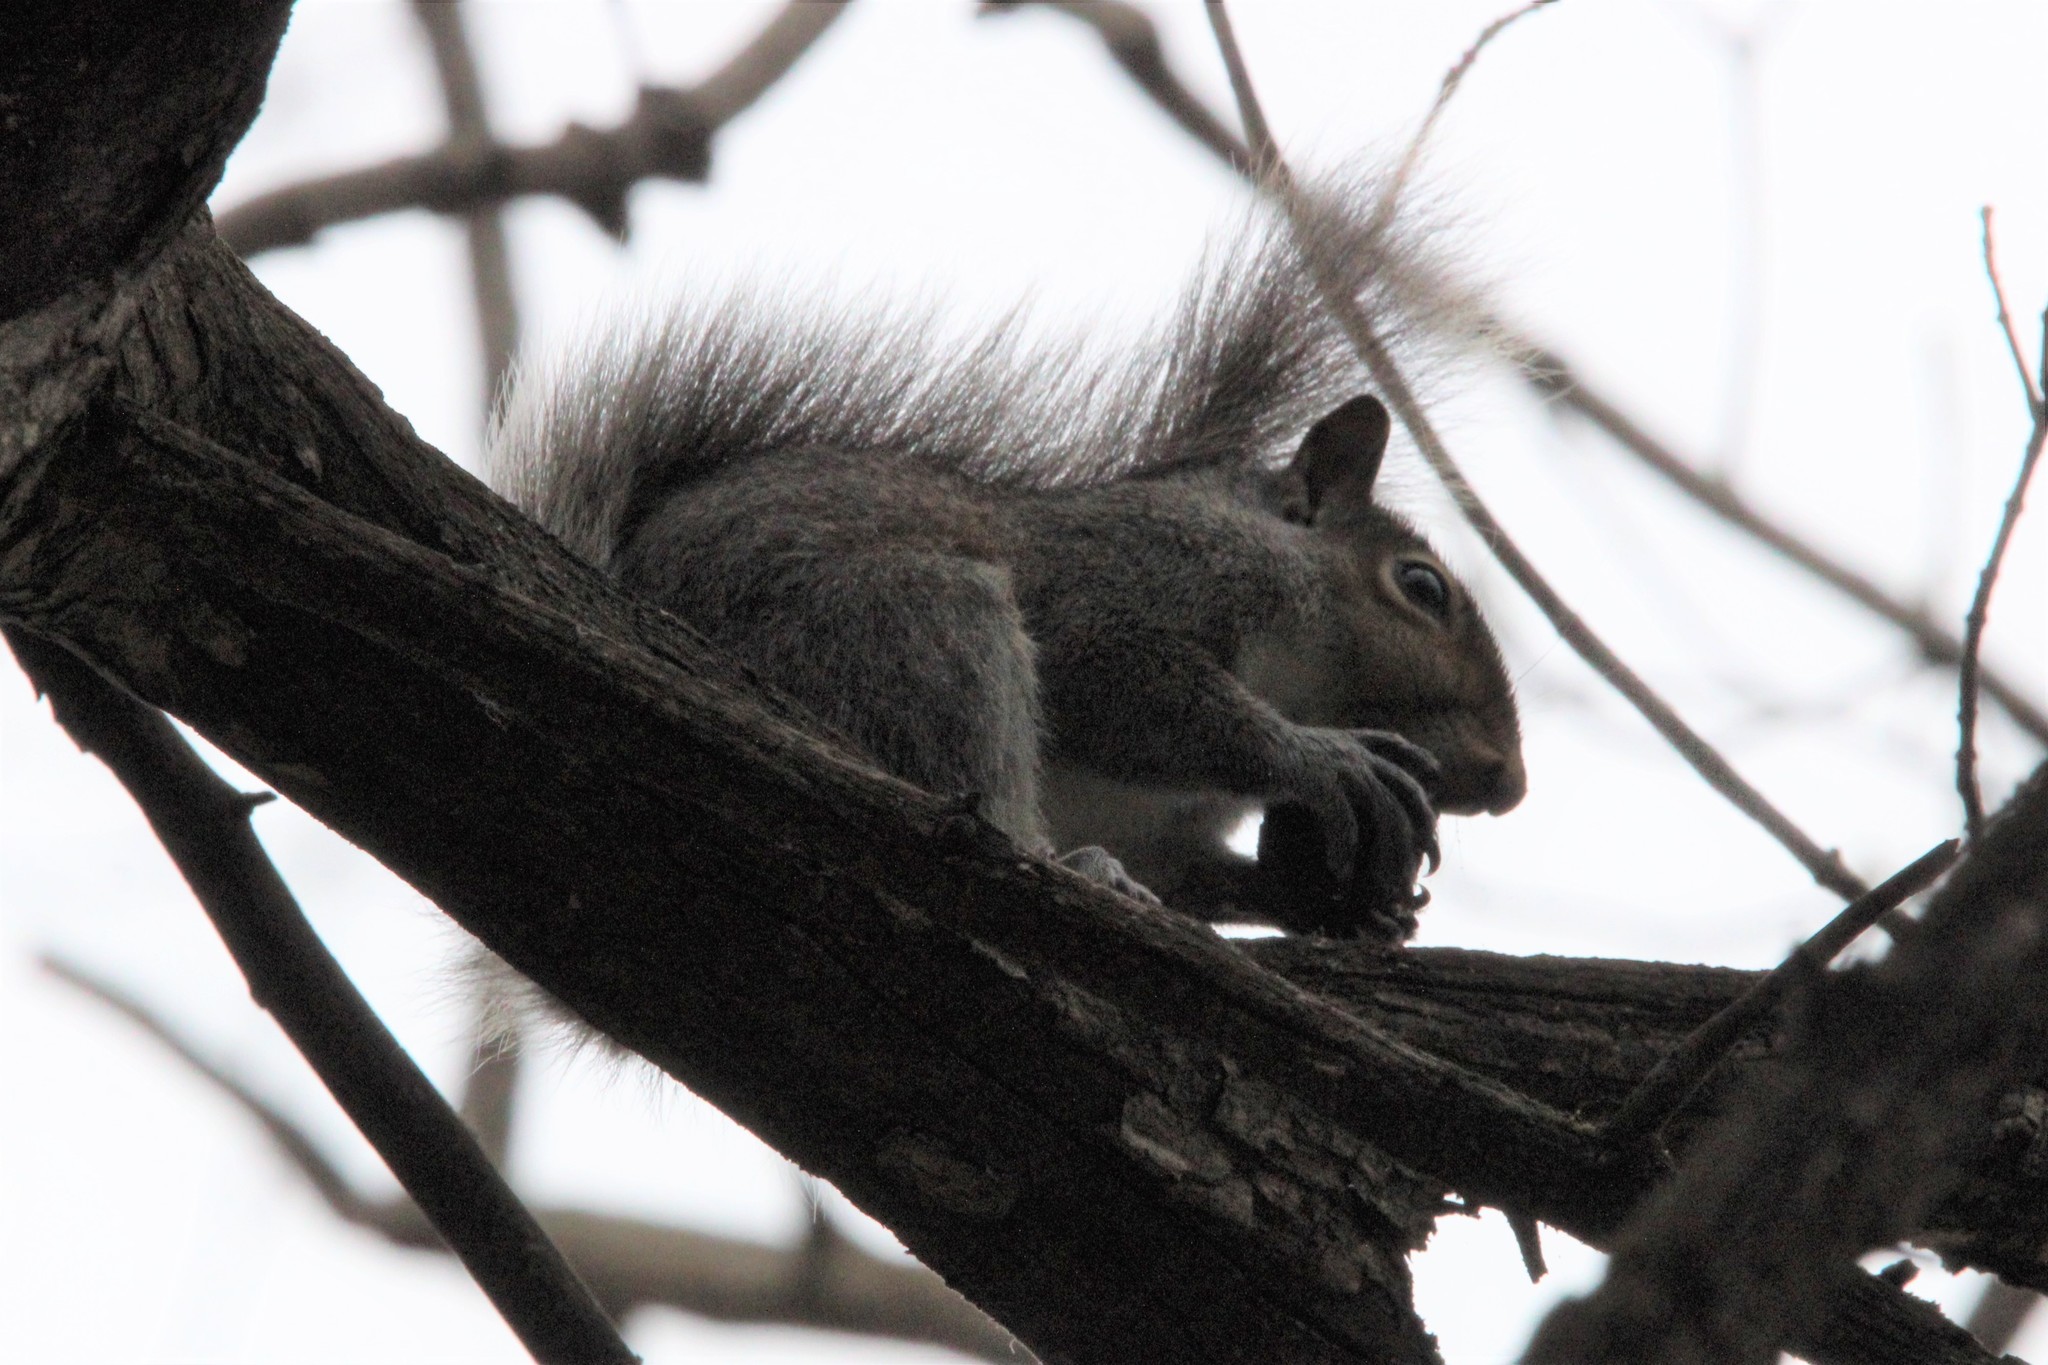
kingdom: Animalia
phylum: Chordata
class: Mammalia
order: Rodentia
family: Sciuridae
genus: Sciurus
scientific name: Sciurus carolinensis
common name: Eastern gray squirrel
